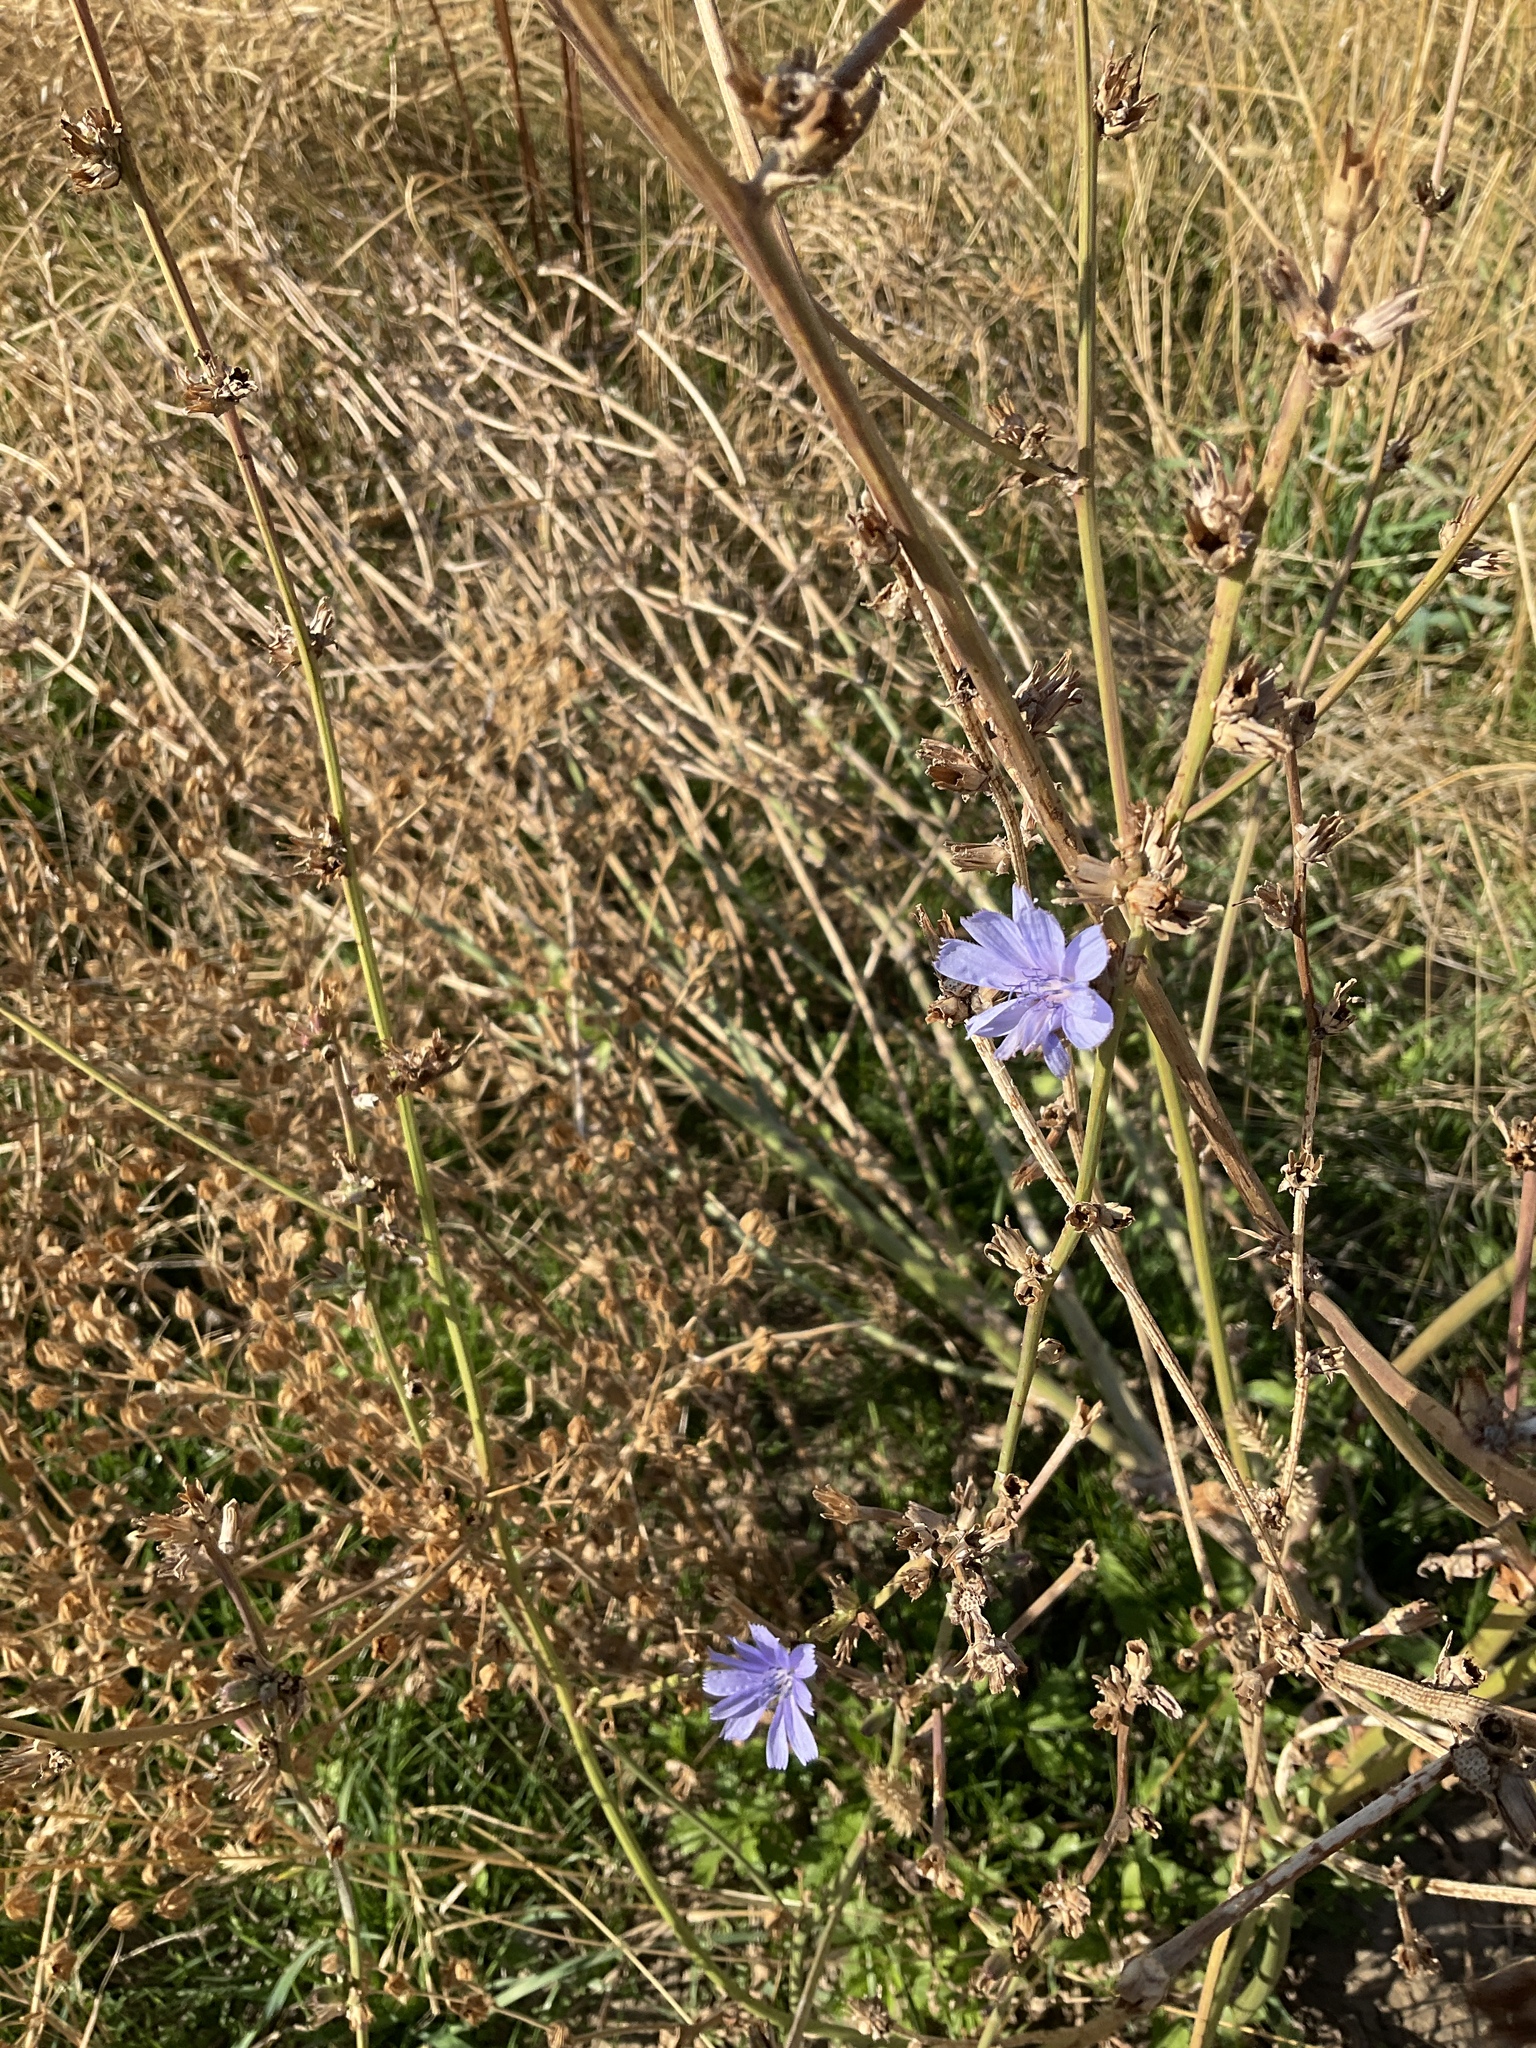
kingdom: Plantae
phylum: Tracheophyta
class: Magnoliopsida
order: Asterales
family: Asteraceae
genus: Cichorium
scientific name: Cichorium intybus
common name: Chicory
